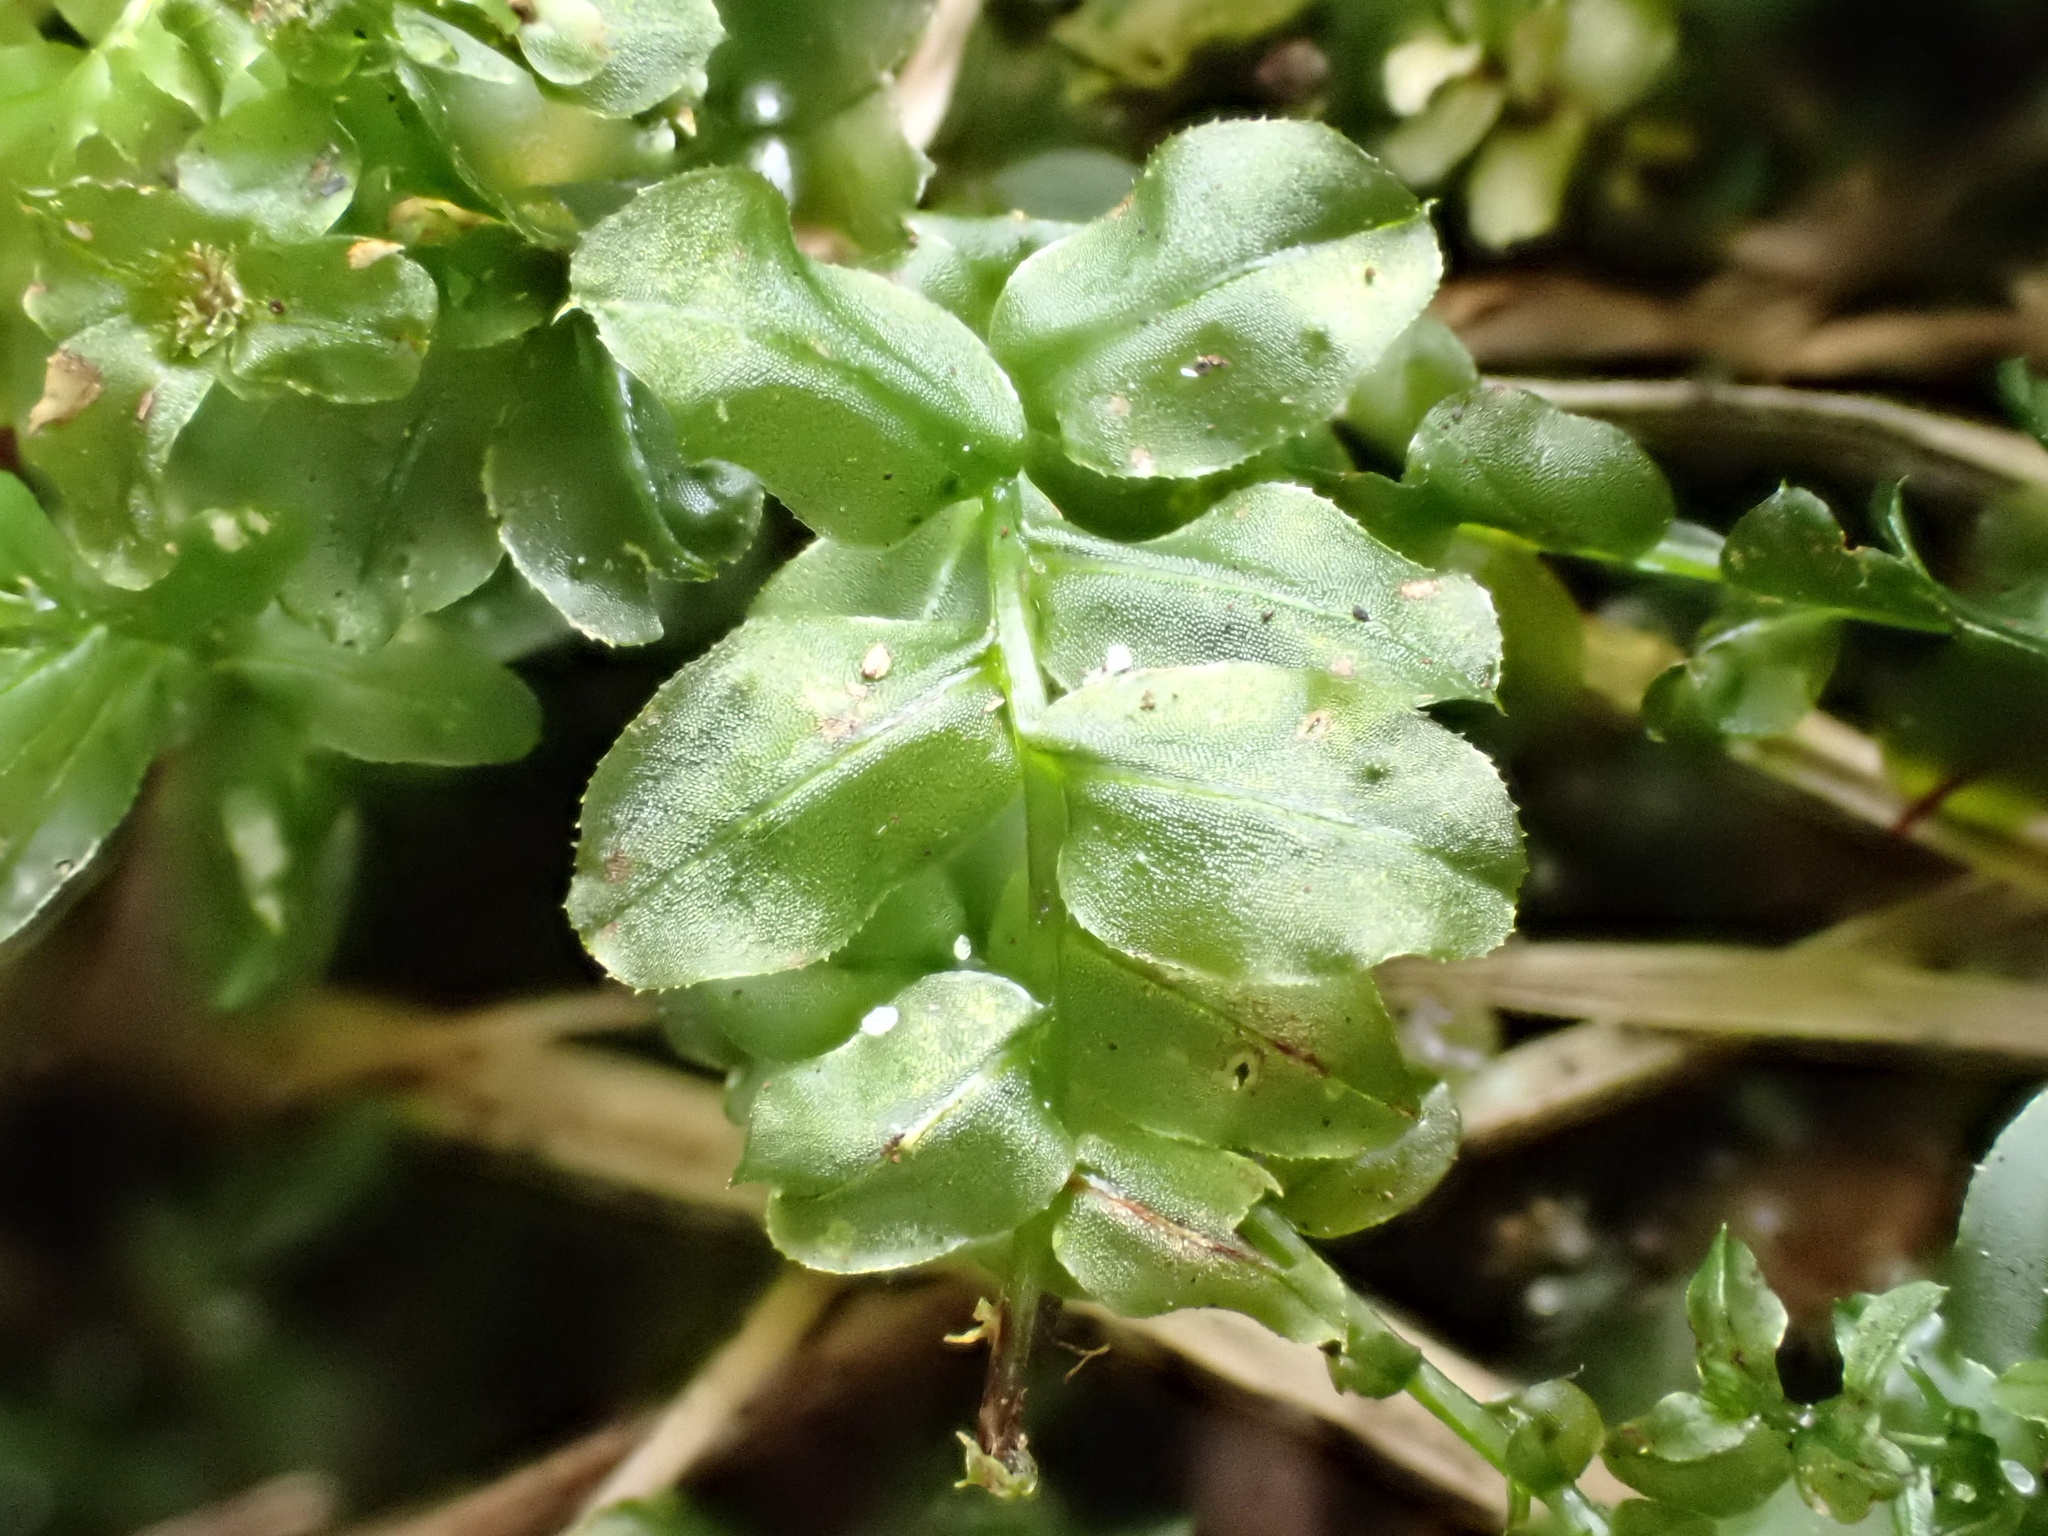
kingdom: Plantae
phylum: Bryophyta
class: Bryopsida
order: Bryales
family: Mniaceae
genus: Plagiomnium
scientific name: Plagiomnium affine
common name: Many-fruited thyme-moss
